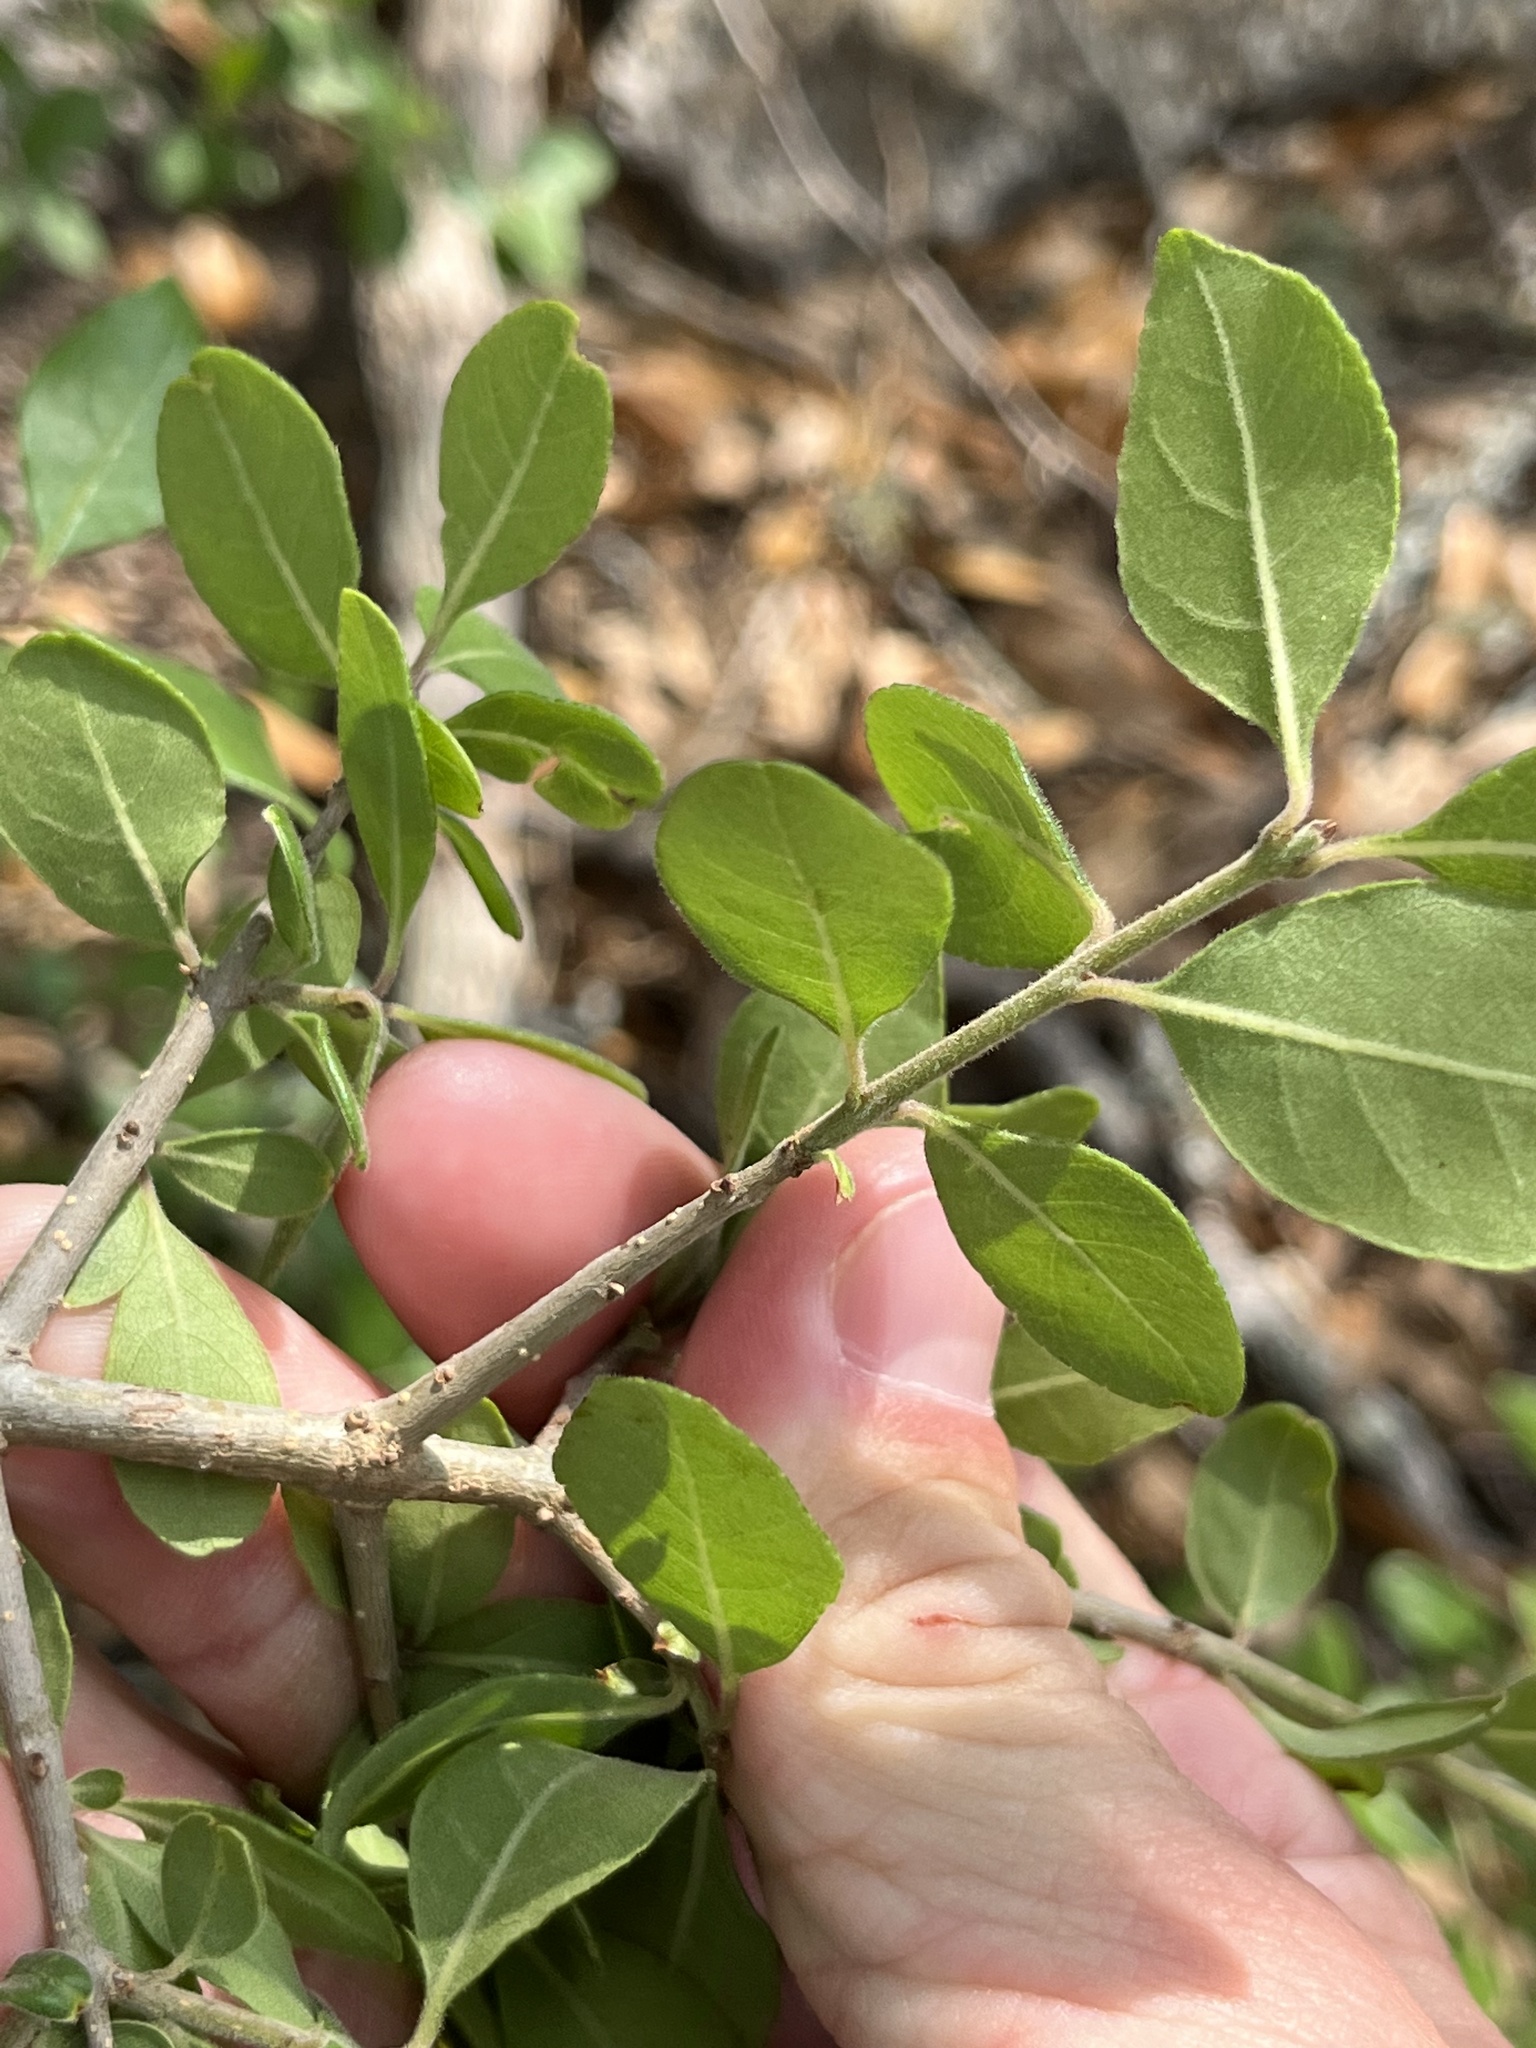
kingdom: Plantae
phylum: Tracheophyta
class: Magnoliopsida
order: Lamiales
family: Oleaceae
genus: Forestiera
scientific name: Forestiera pubescens
